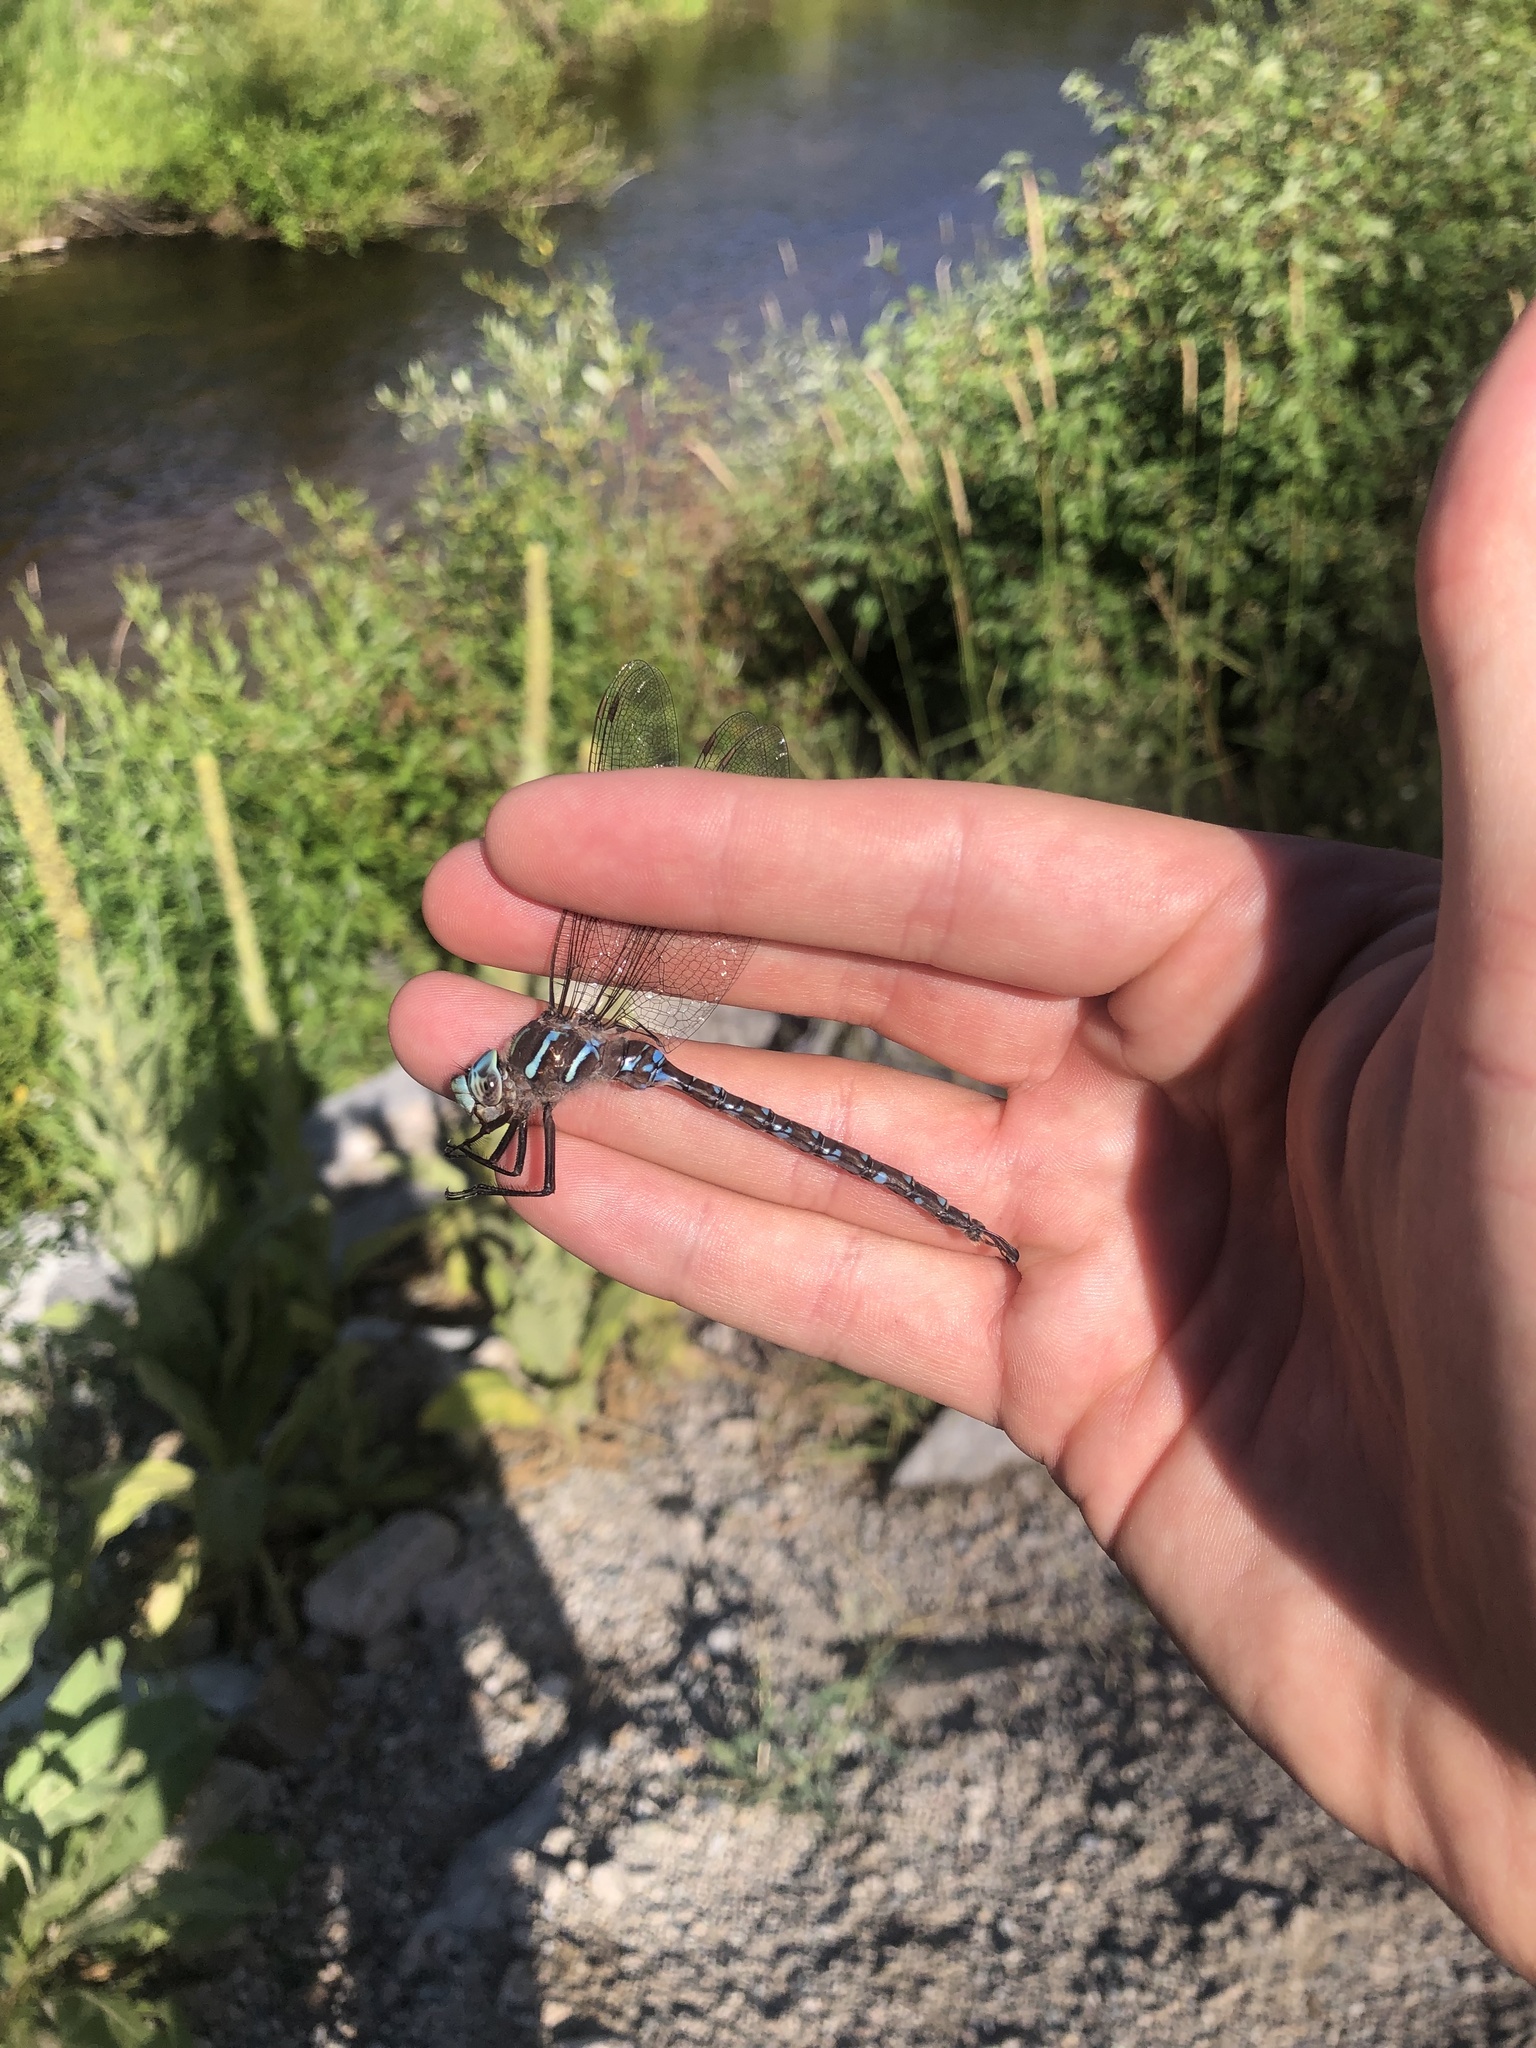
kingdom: Animalia
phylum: Arthropoda
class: Insecta
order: Odonata
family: Aeshnidae
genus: Aeshna
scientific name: Aeshna umbrosa
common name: Shadow darner
